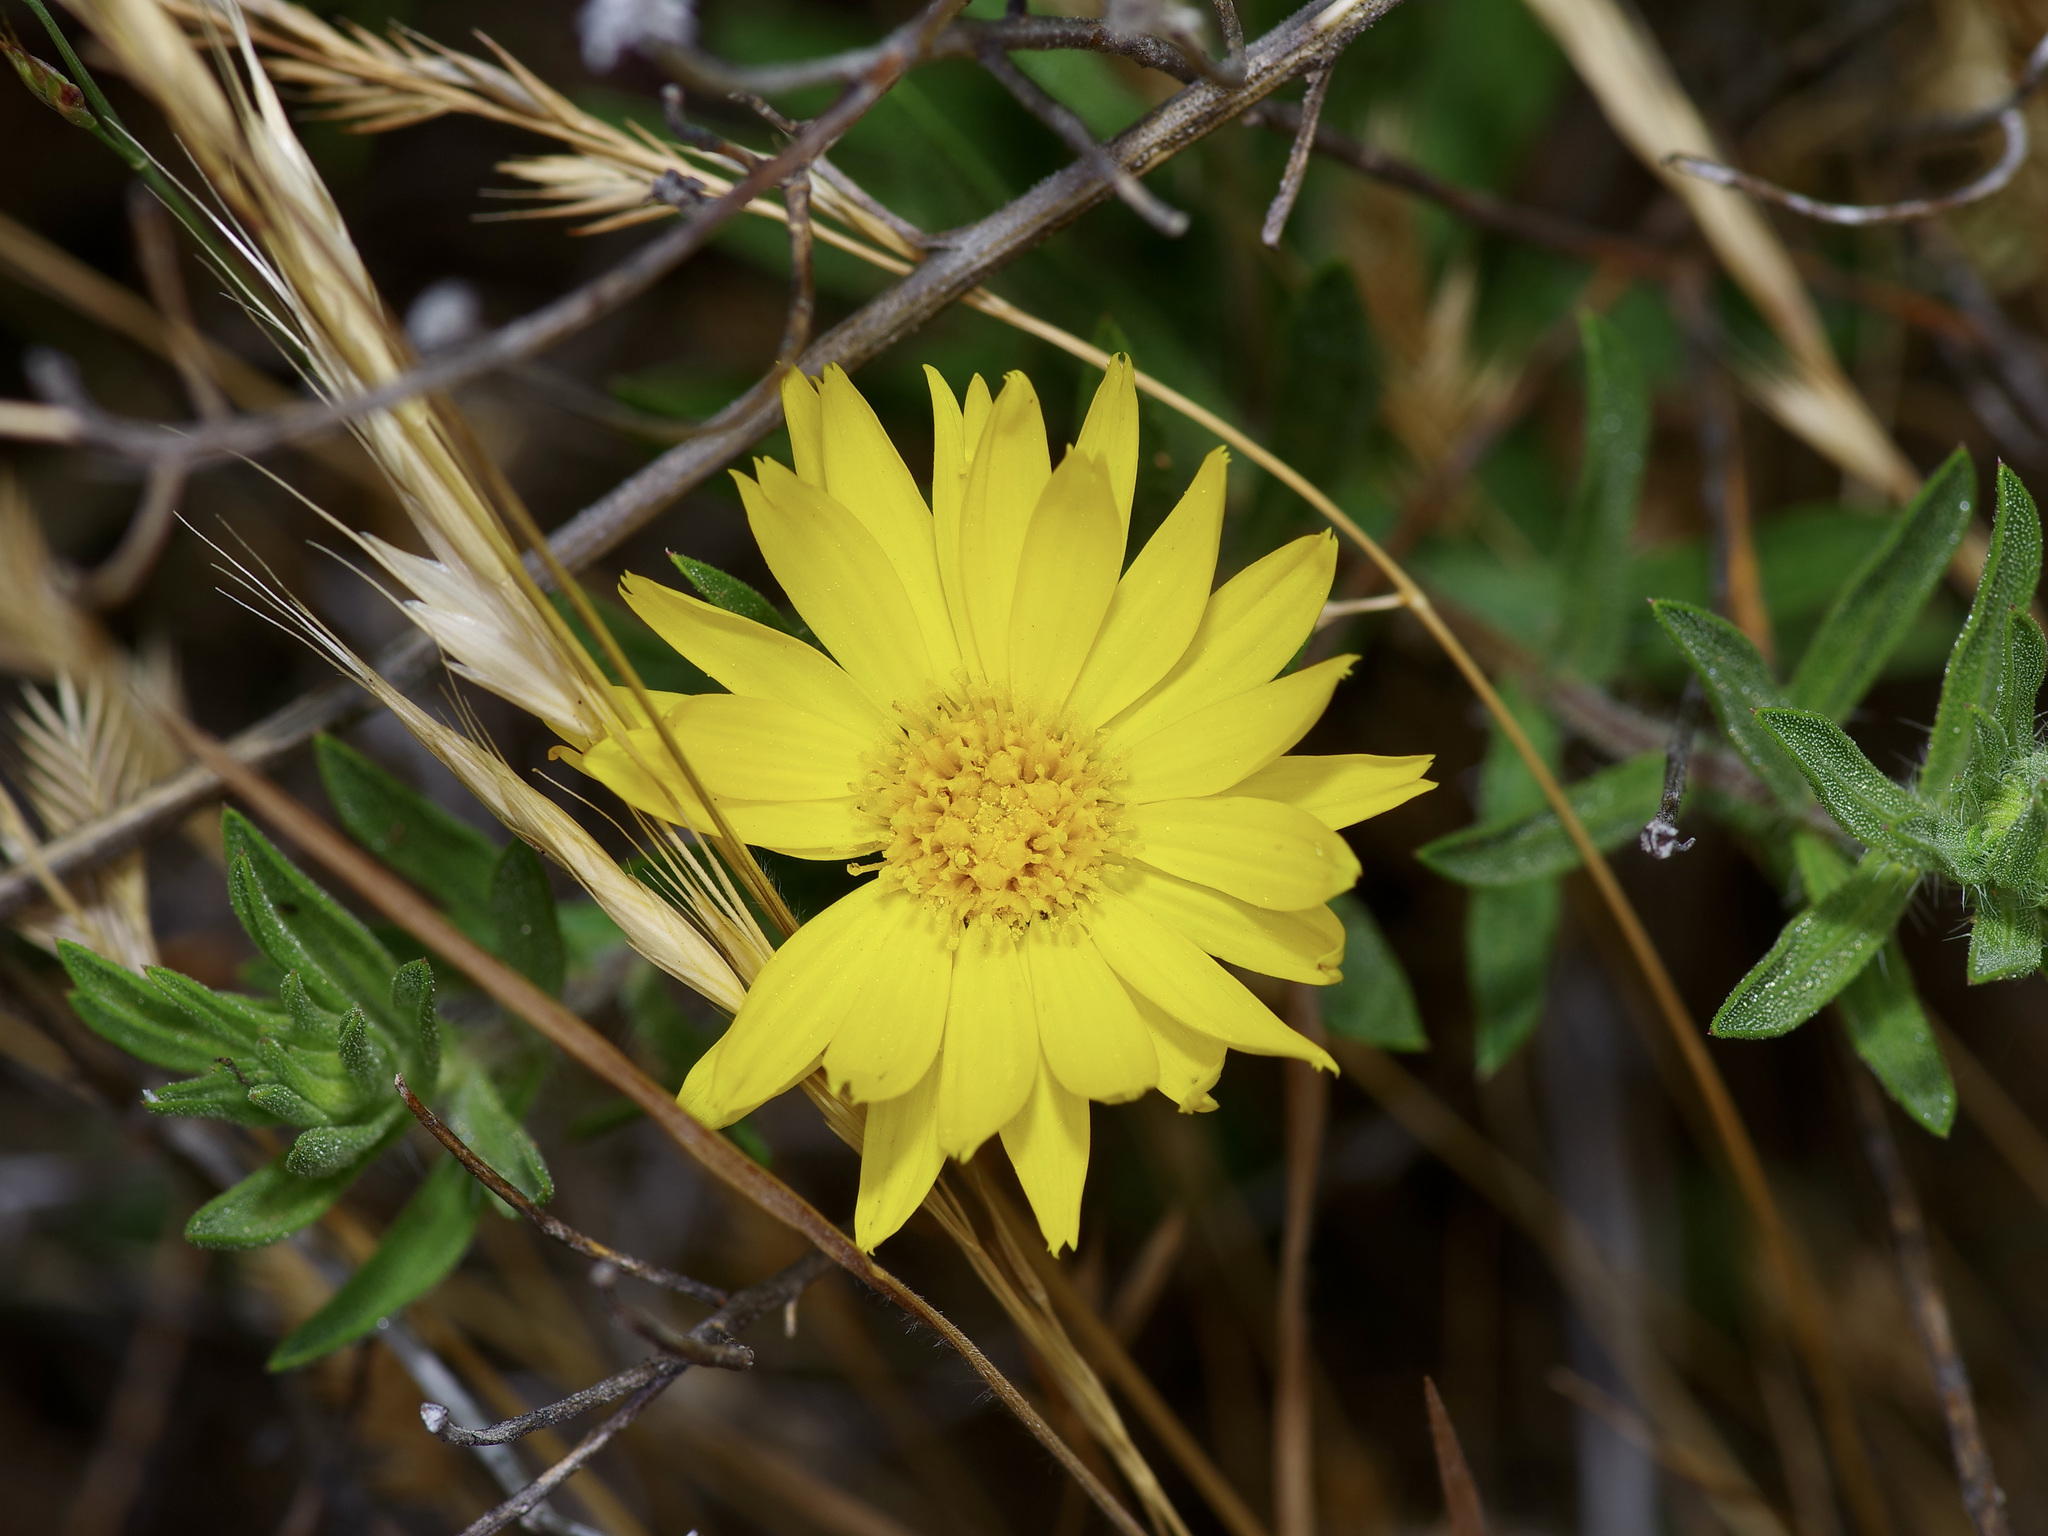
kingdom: Plantae
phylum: Tracheophyta
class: Magnoliopsida
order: Asterales
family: Asteraceae
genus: Heterotheca
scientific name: Heterotheca stenophylla
